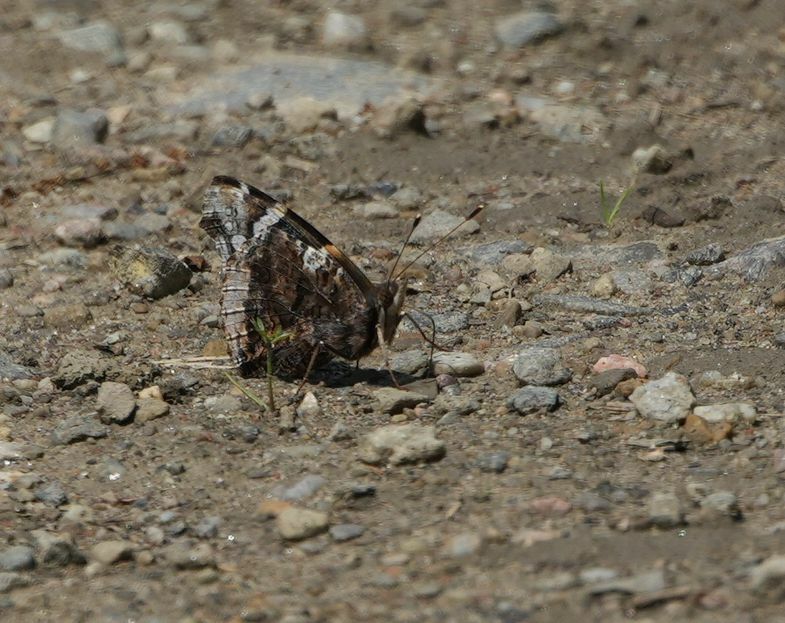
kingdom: Animalia
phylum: Arthropoda
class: Insecta
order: Lepidoptera
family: Nymphalidae
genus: Vanessa
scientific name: Vanessa atalanta
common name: Red admiral
